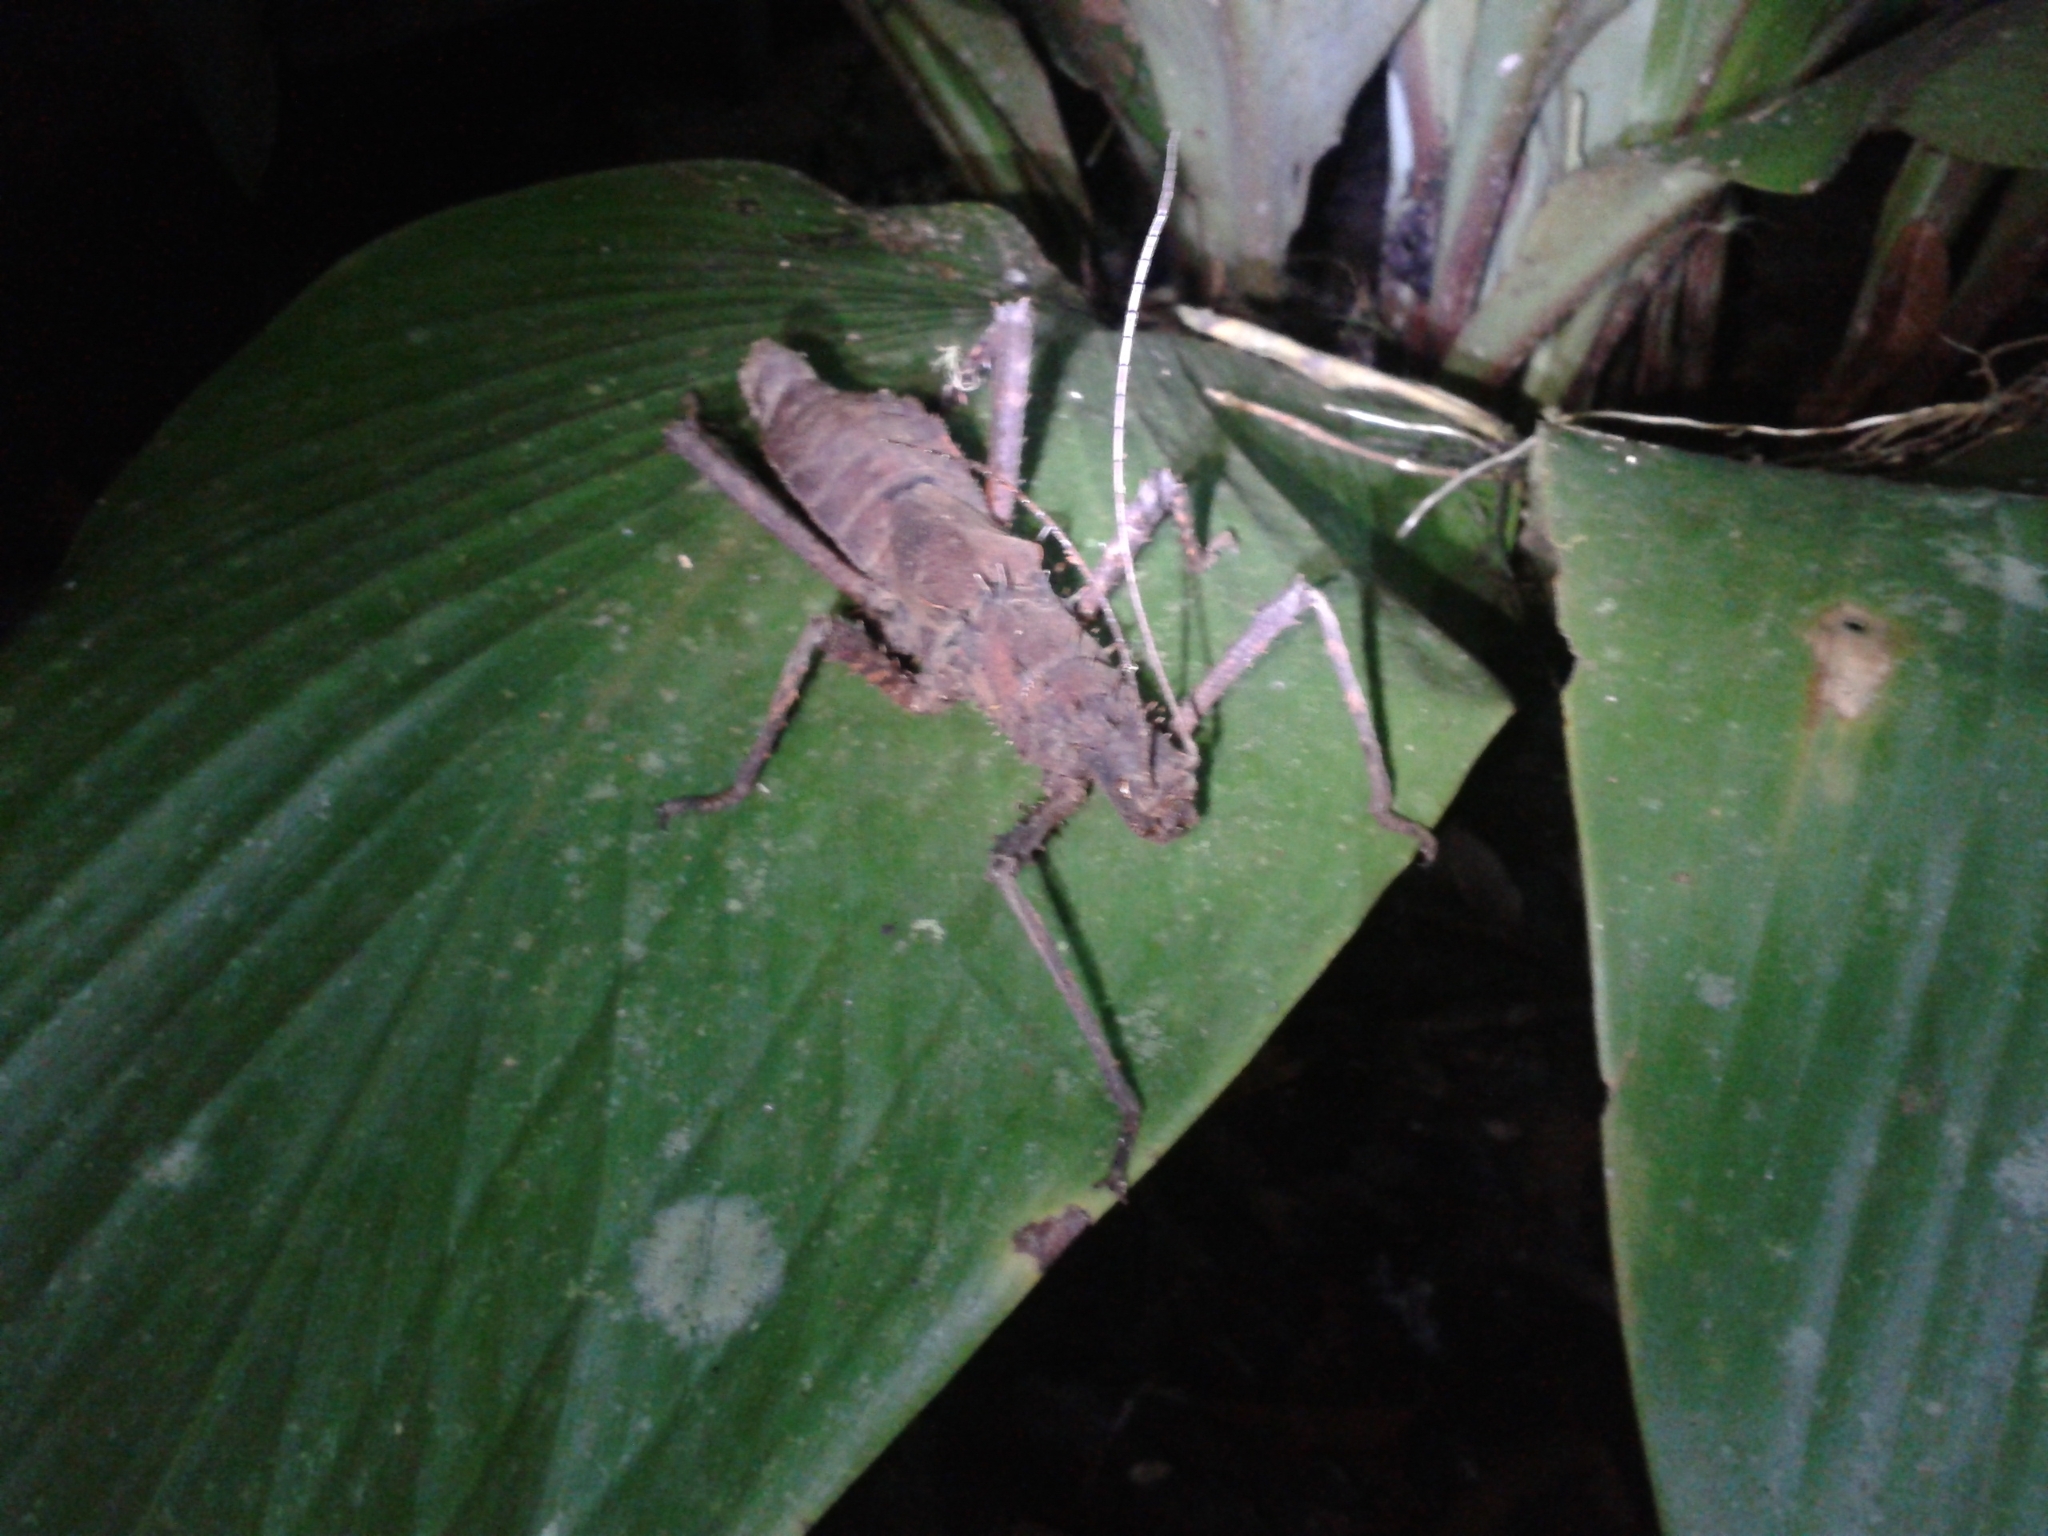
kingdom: Animalia
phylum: Arthropoda
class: Insecta
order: Phasmida
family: Heteropterygidae
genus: Haaniella
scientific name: Haaniella echinata
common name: Prickly haaniella
